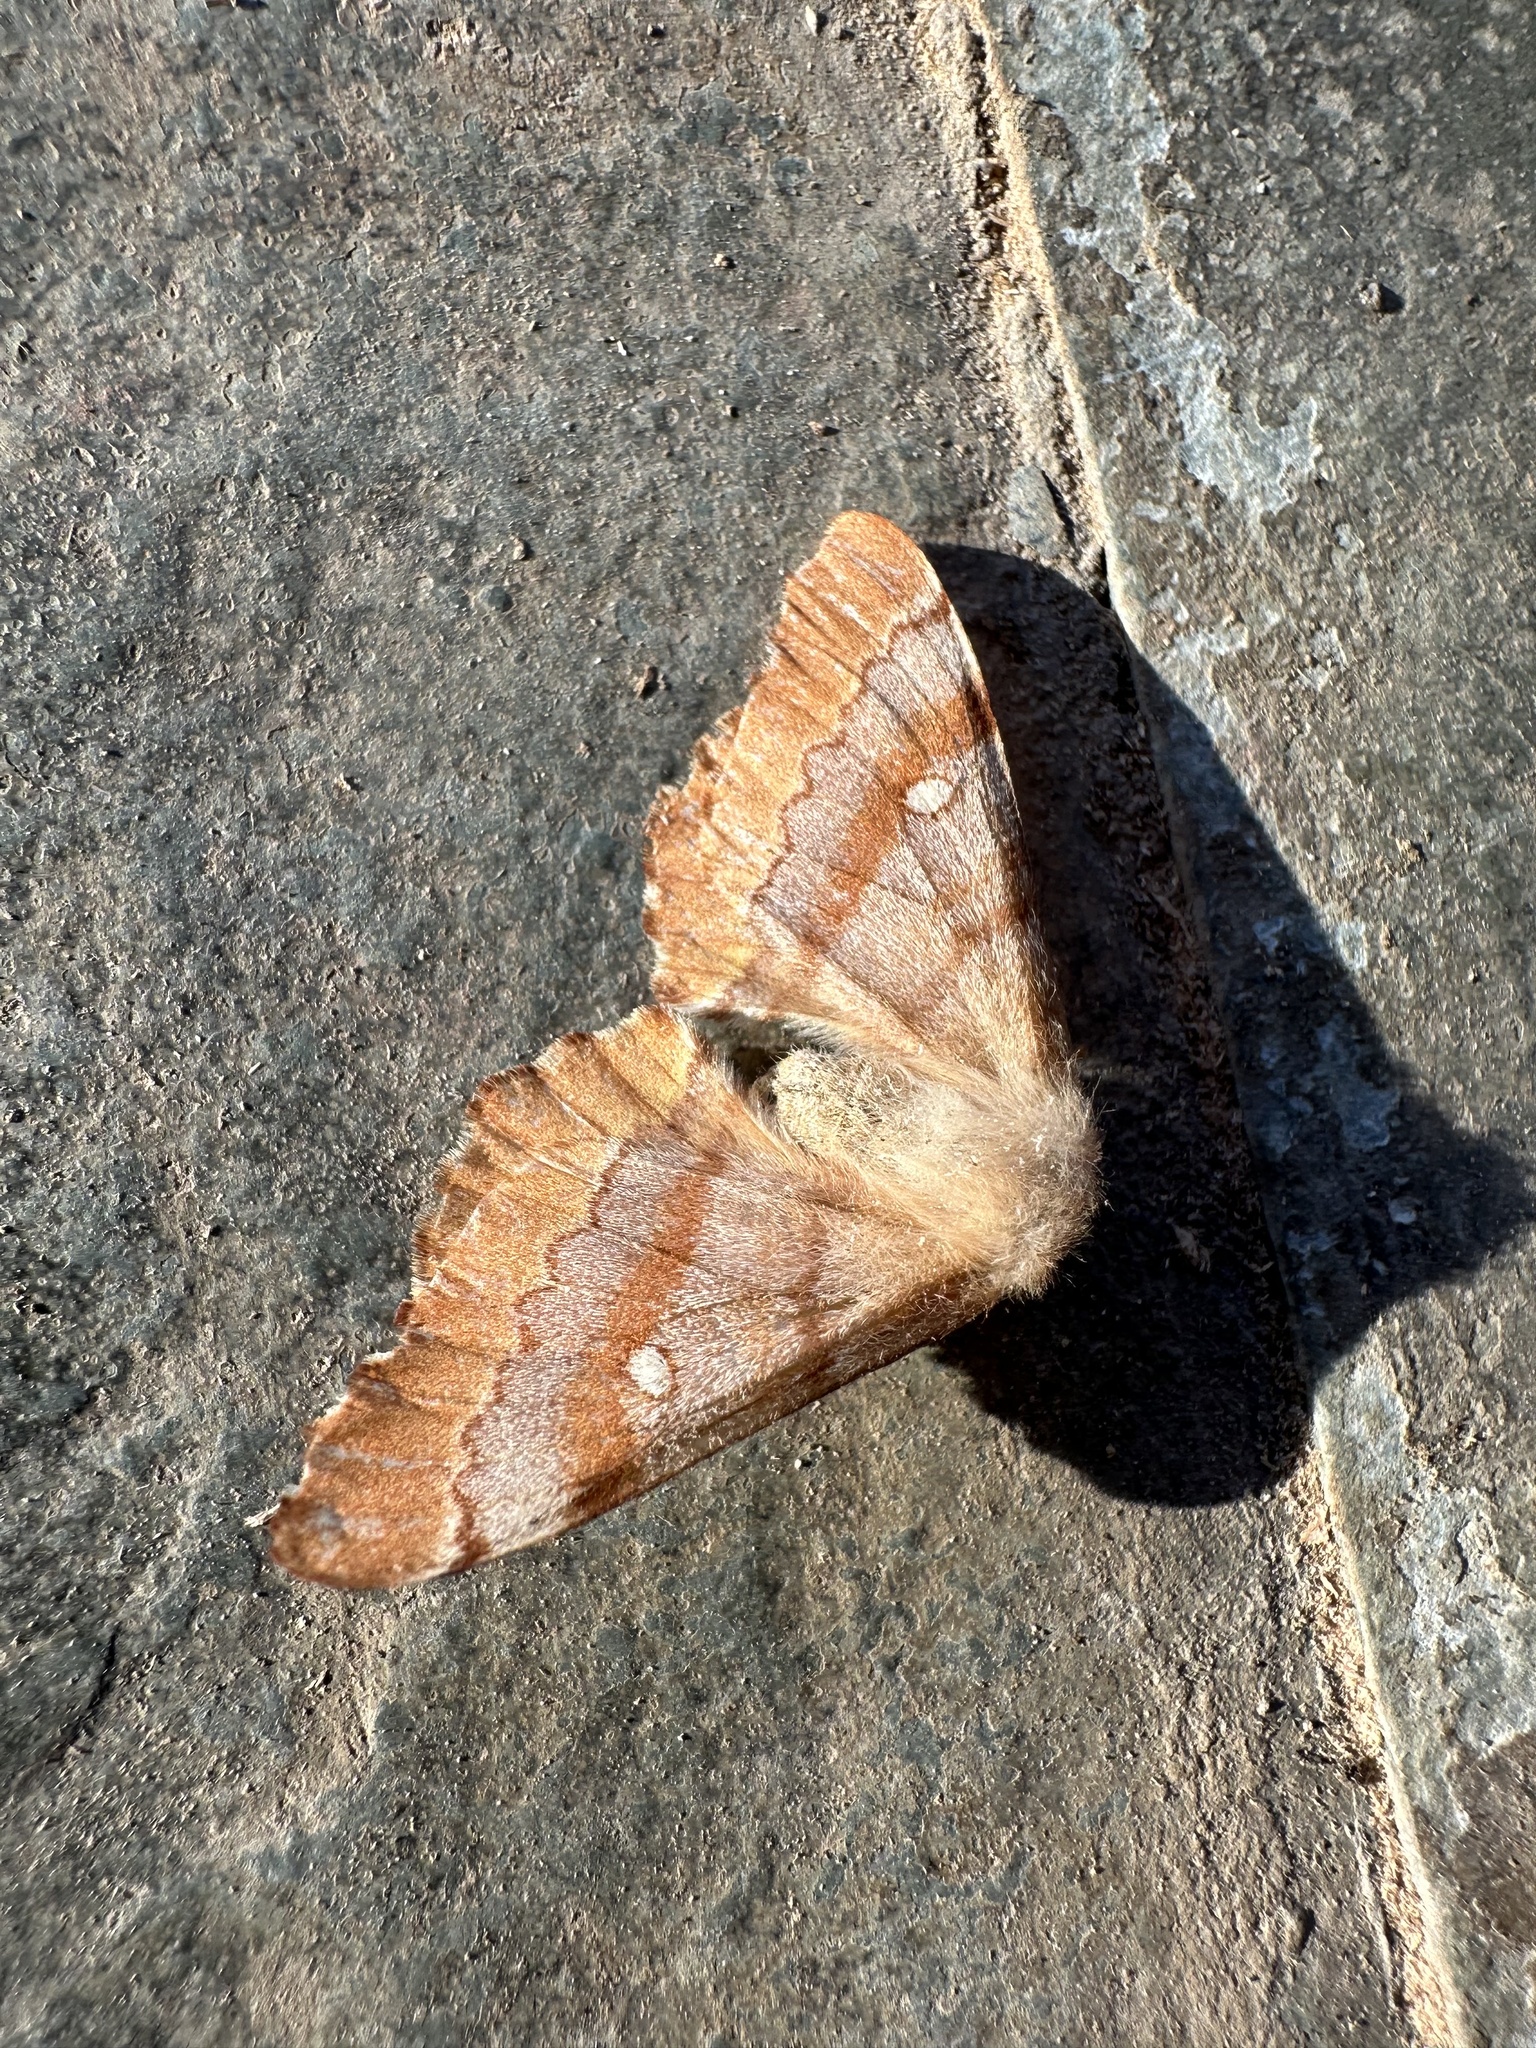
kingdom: Animalia
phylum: Arthropoda
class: Insecta
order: Lepidoptera
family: Saturniidae
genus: Microdulia
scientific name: Microdulia mirabilis
